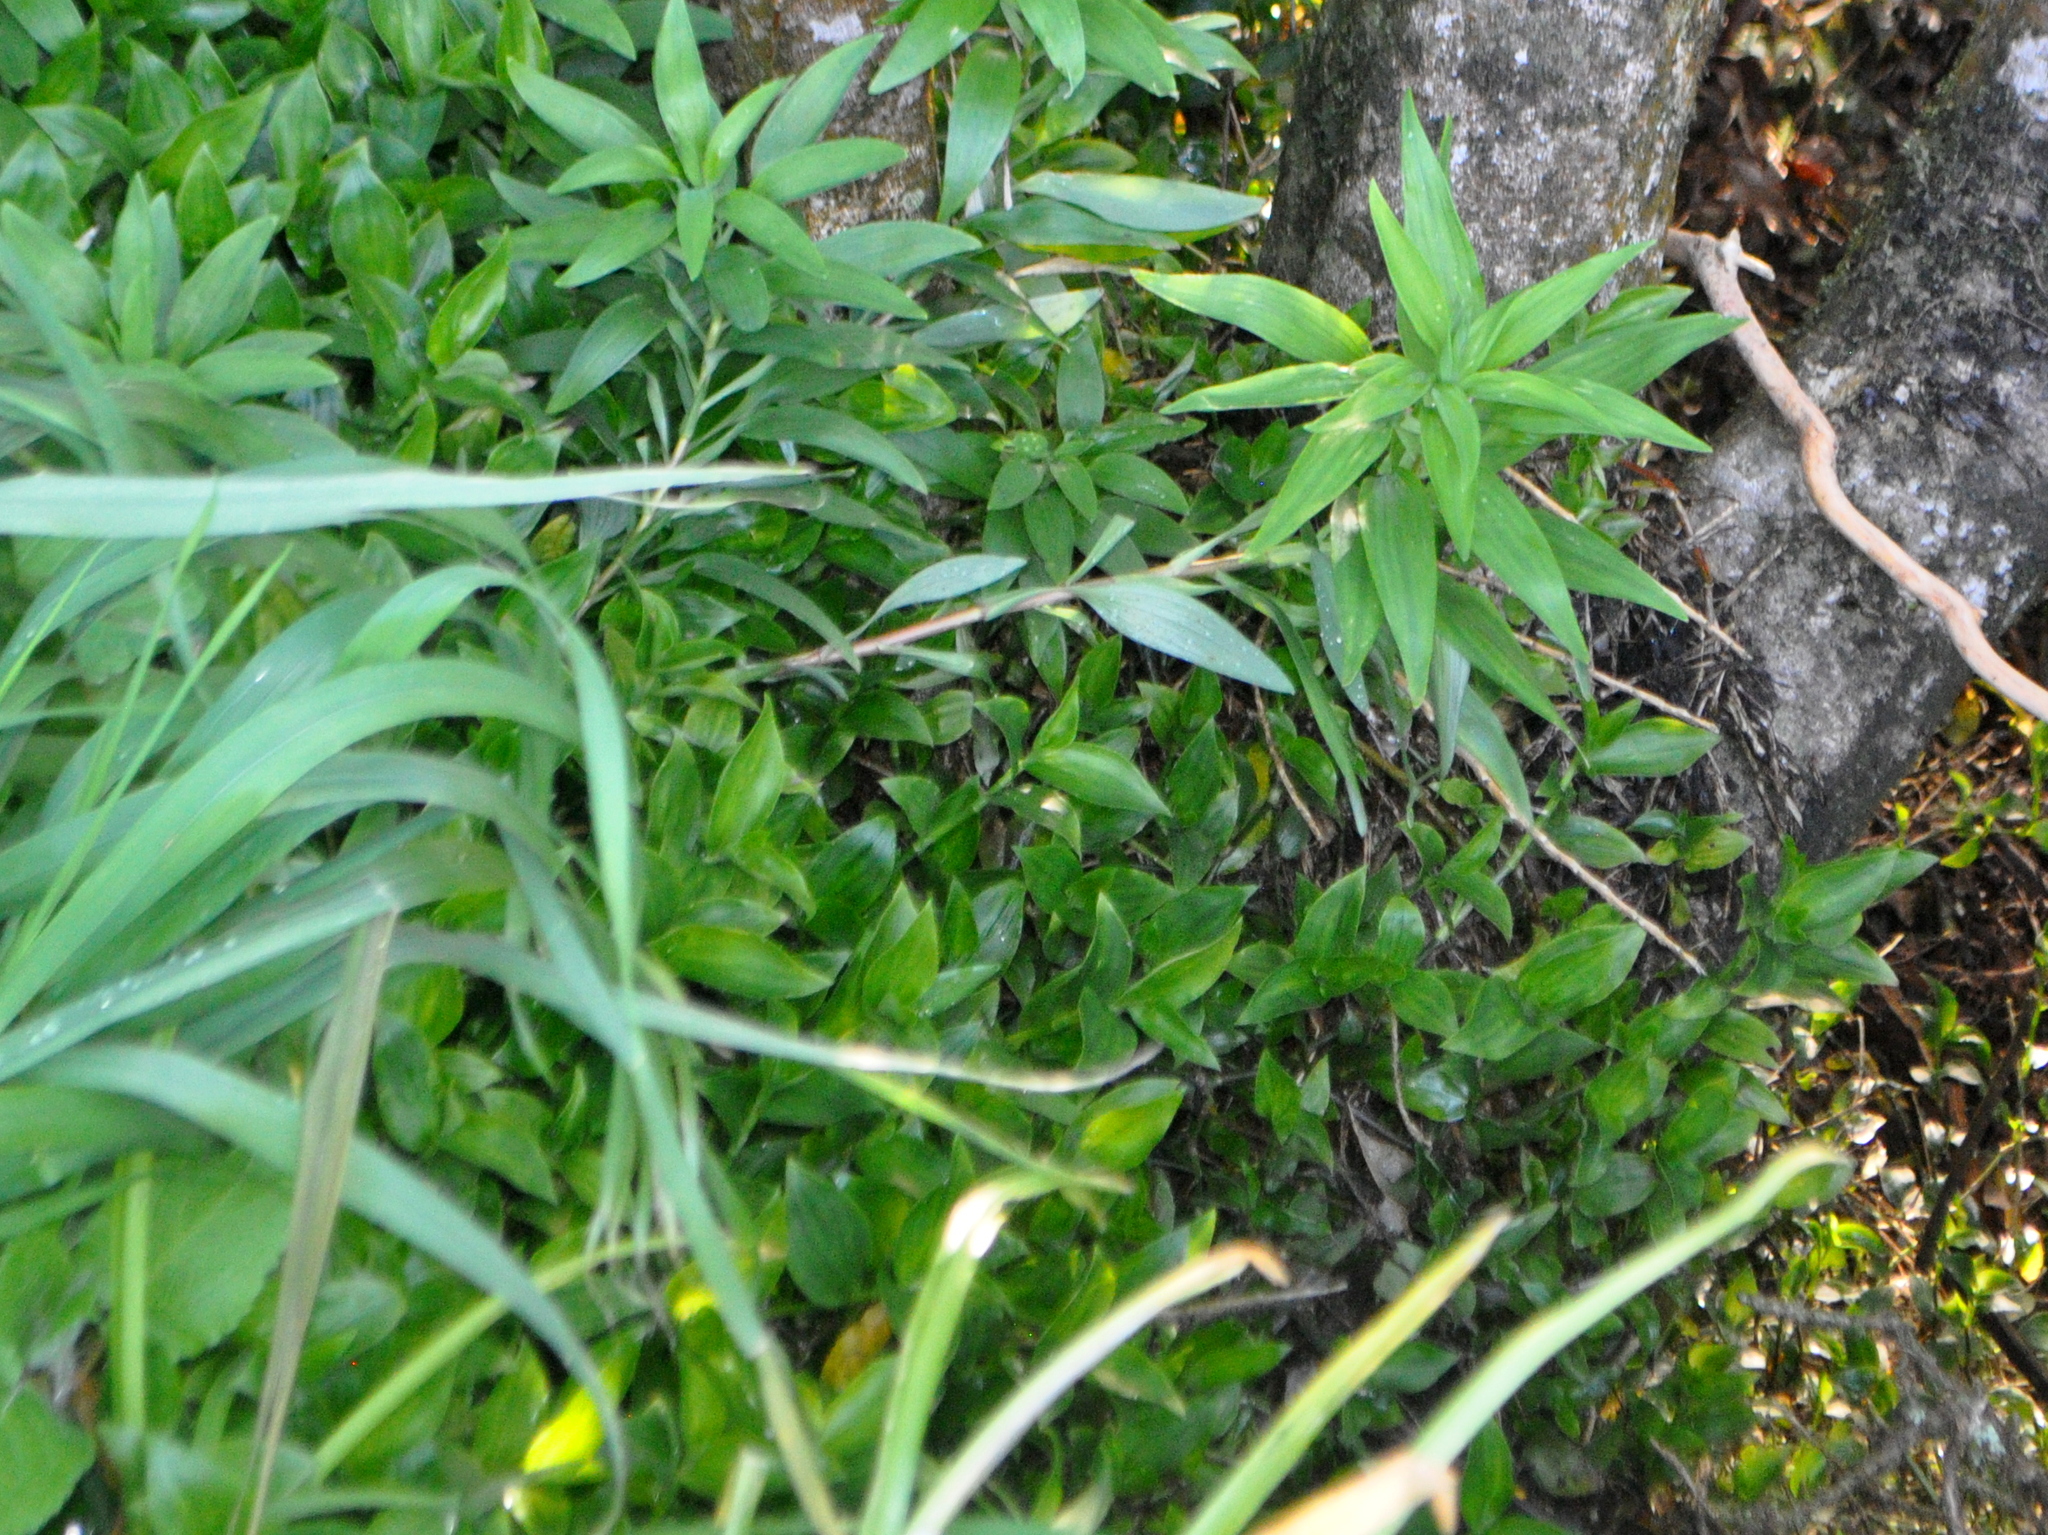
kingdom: Plantae
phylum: Tracheophyta
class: Liliopsida
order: Commelinales
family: Commelinaceae
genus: Tradescantia
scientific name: Tradescantia fluminensis
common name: Wandering-jew
